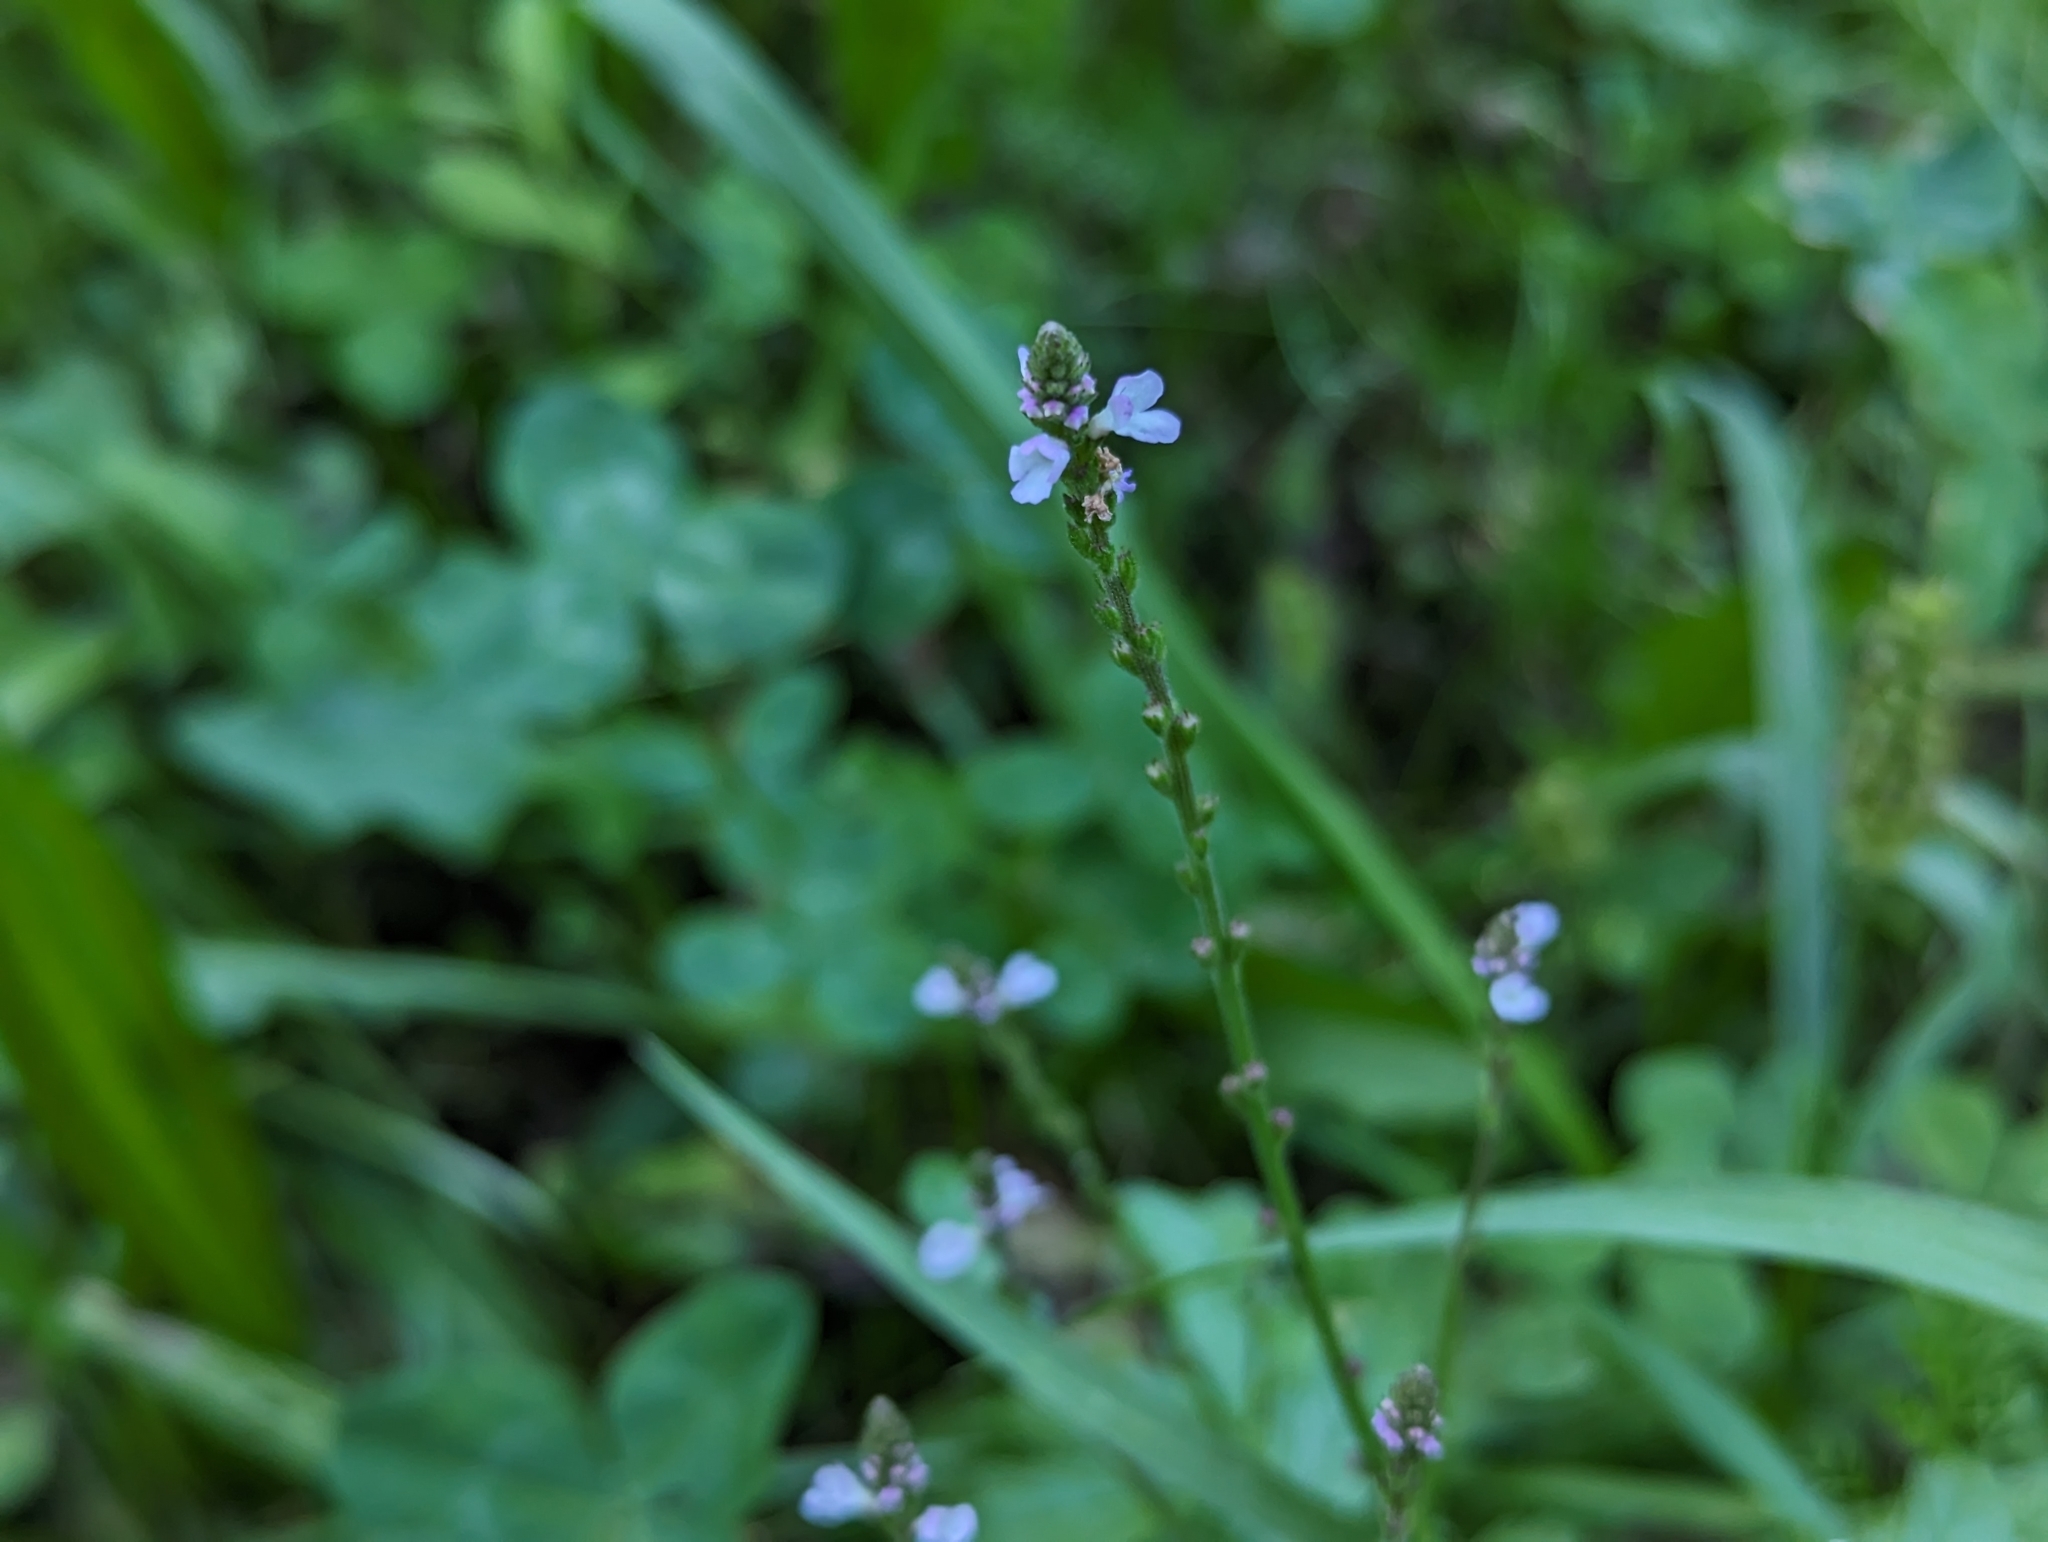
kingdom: Plantae
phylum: Tracheophyta
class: Magnoliopsida
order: Lamiales
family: Verbenaceae
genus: Verbena
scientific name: Verbena officinalis
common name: Vervain
